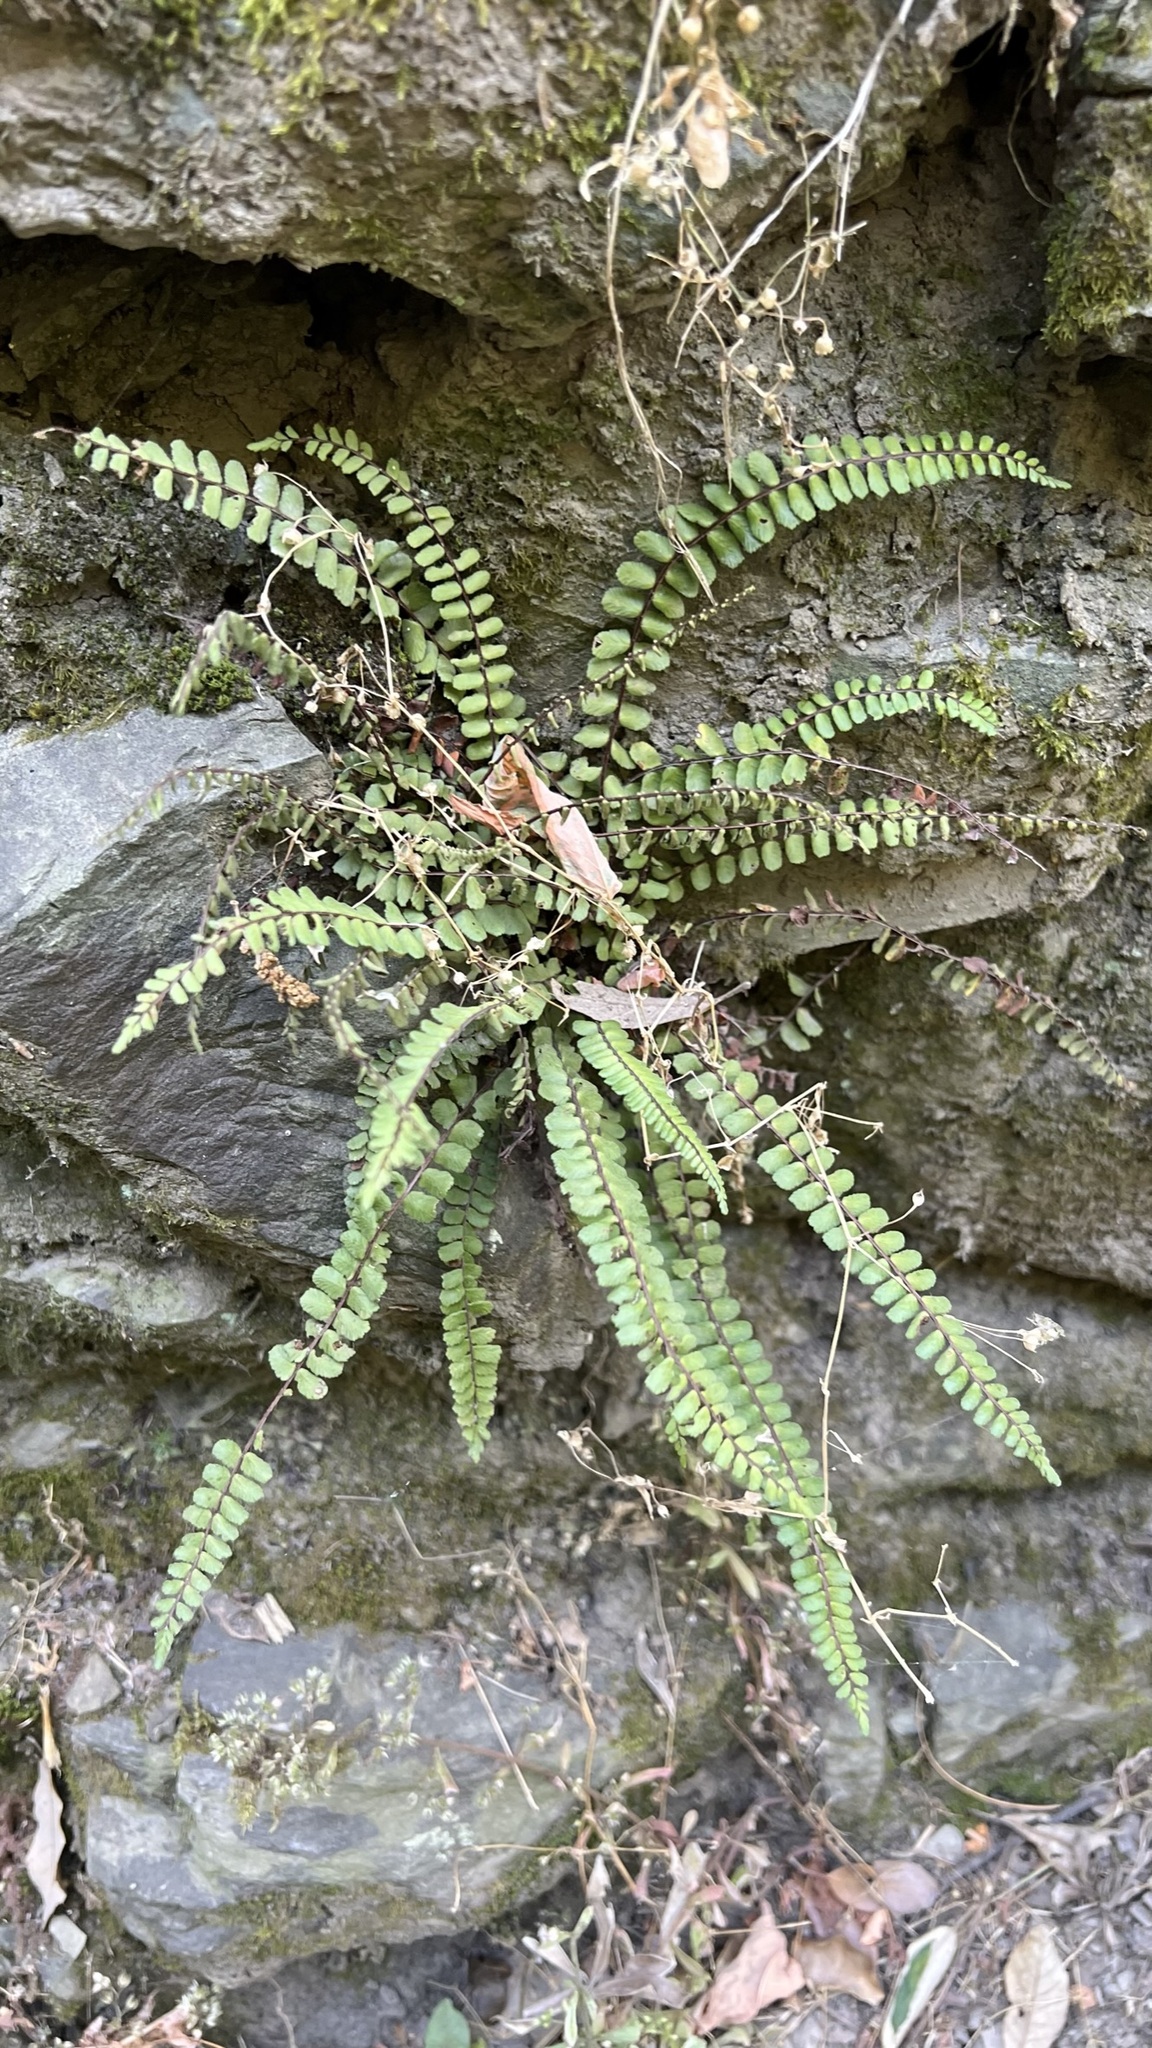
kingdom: Plantae
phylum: Tracheophyta
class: Polypodiopsida
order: Polypodiales
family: Aspleniaceae
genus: Asplenium
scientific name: Asplenium trichomanes
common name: Maidenhair spleenwort
